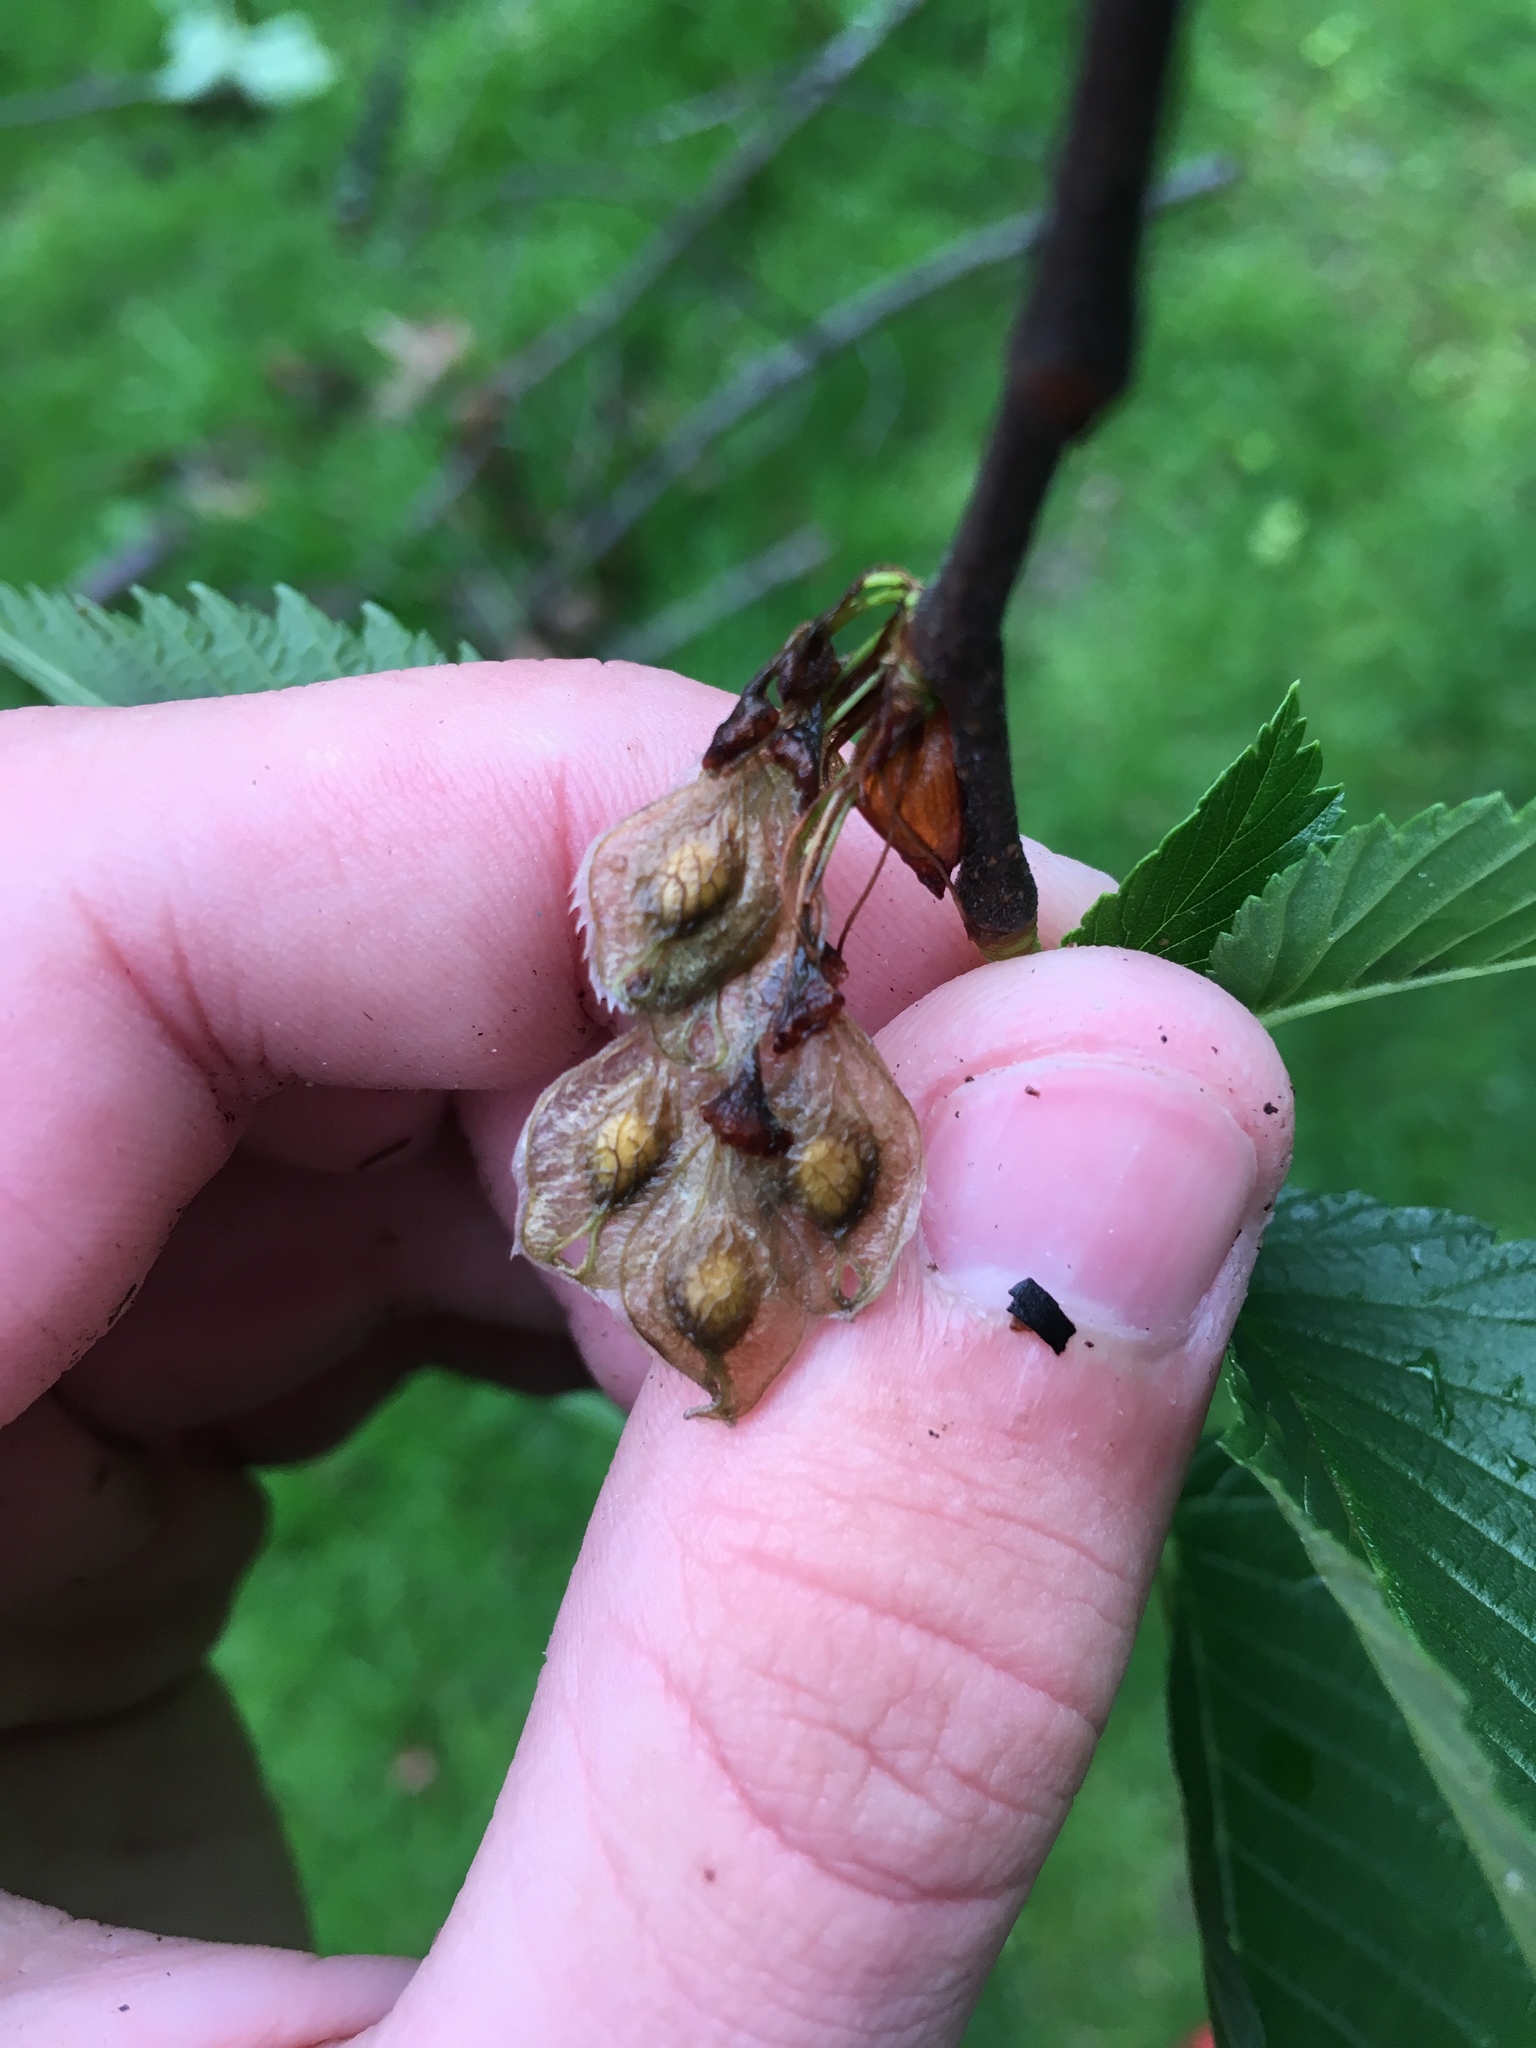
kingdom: Plantae
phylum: Tracheophyta
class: Magnoliopsida
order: Rosales
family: Ulmaceae
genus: Ulmus
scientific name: Ulmus americana
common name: American elm
